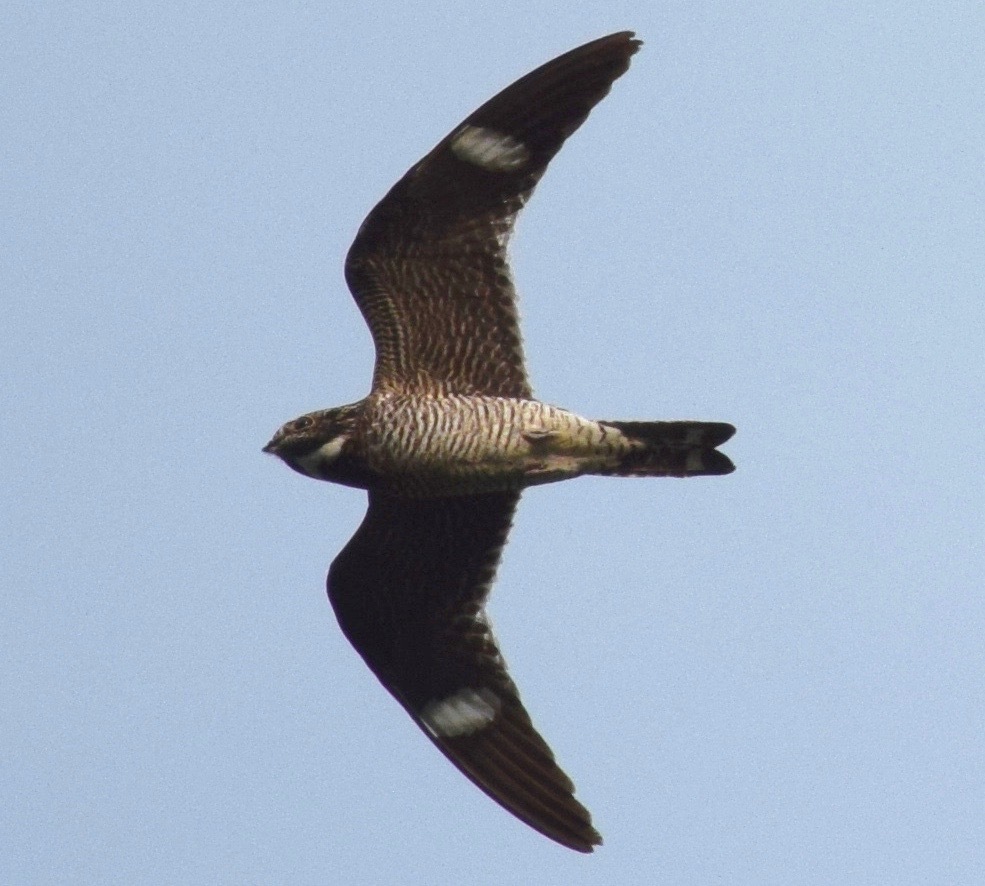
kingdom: Animalia
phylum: Chordata
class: Aves
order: Caprimulgiformes
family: Caprimulgidae
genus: Chordeiles
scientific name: Chordeiles minor
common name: Common nighthawk
